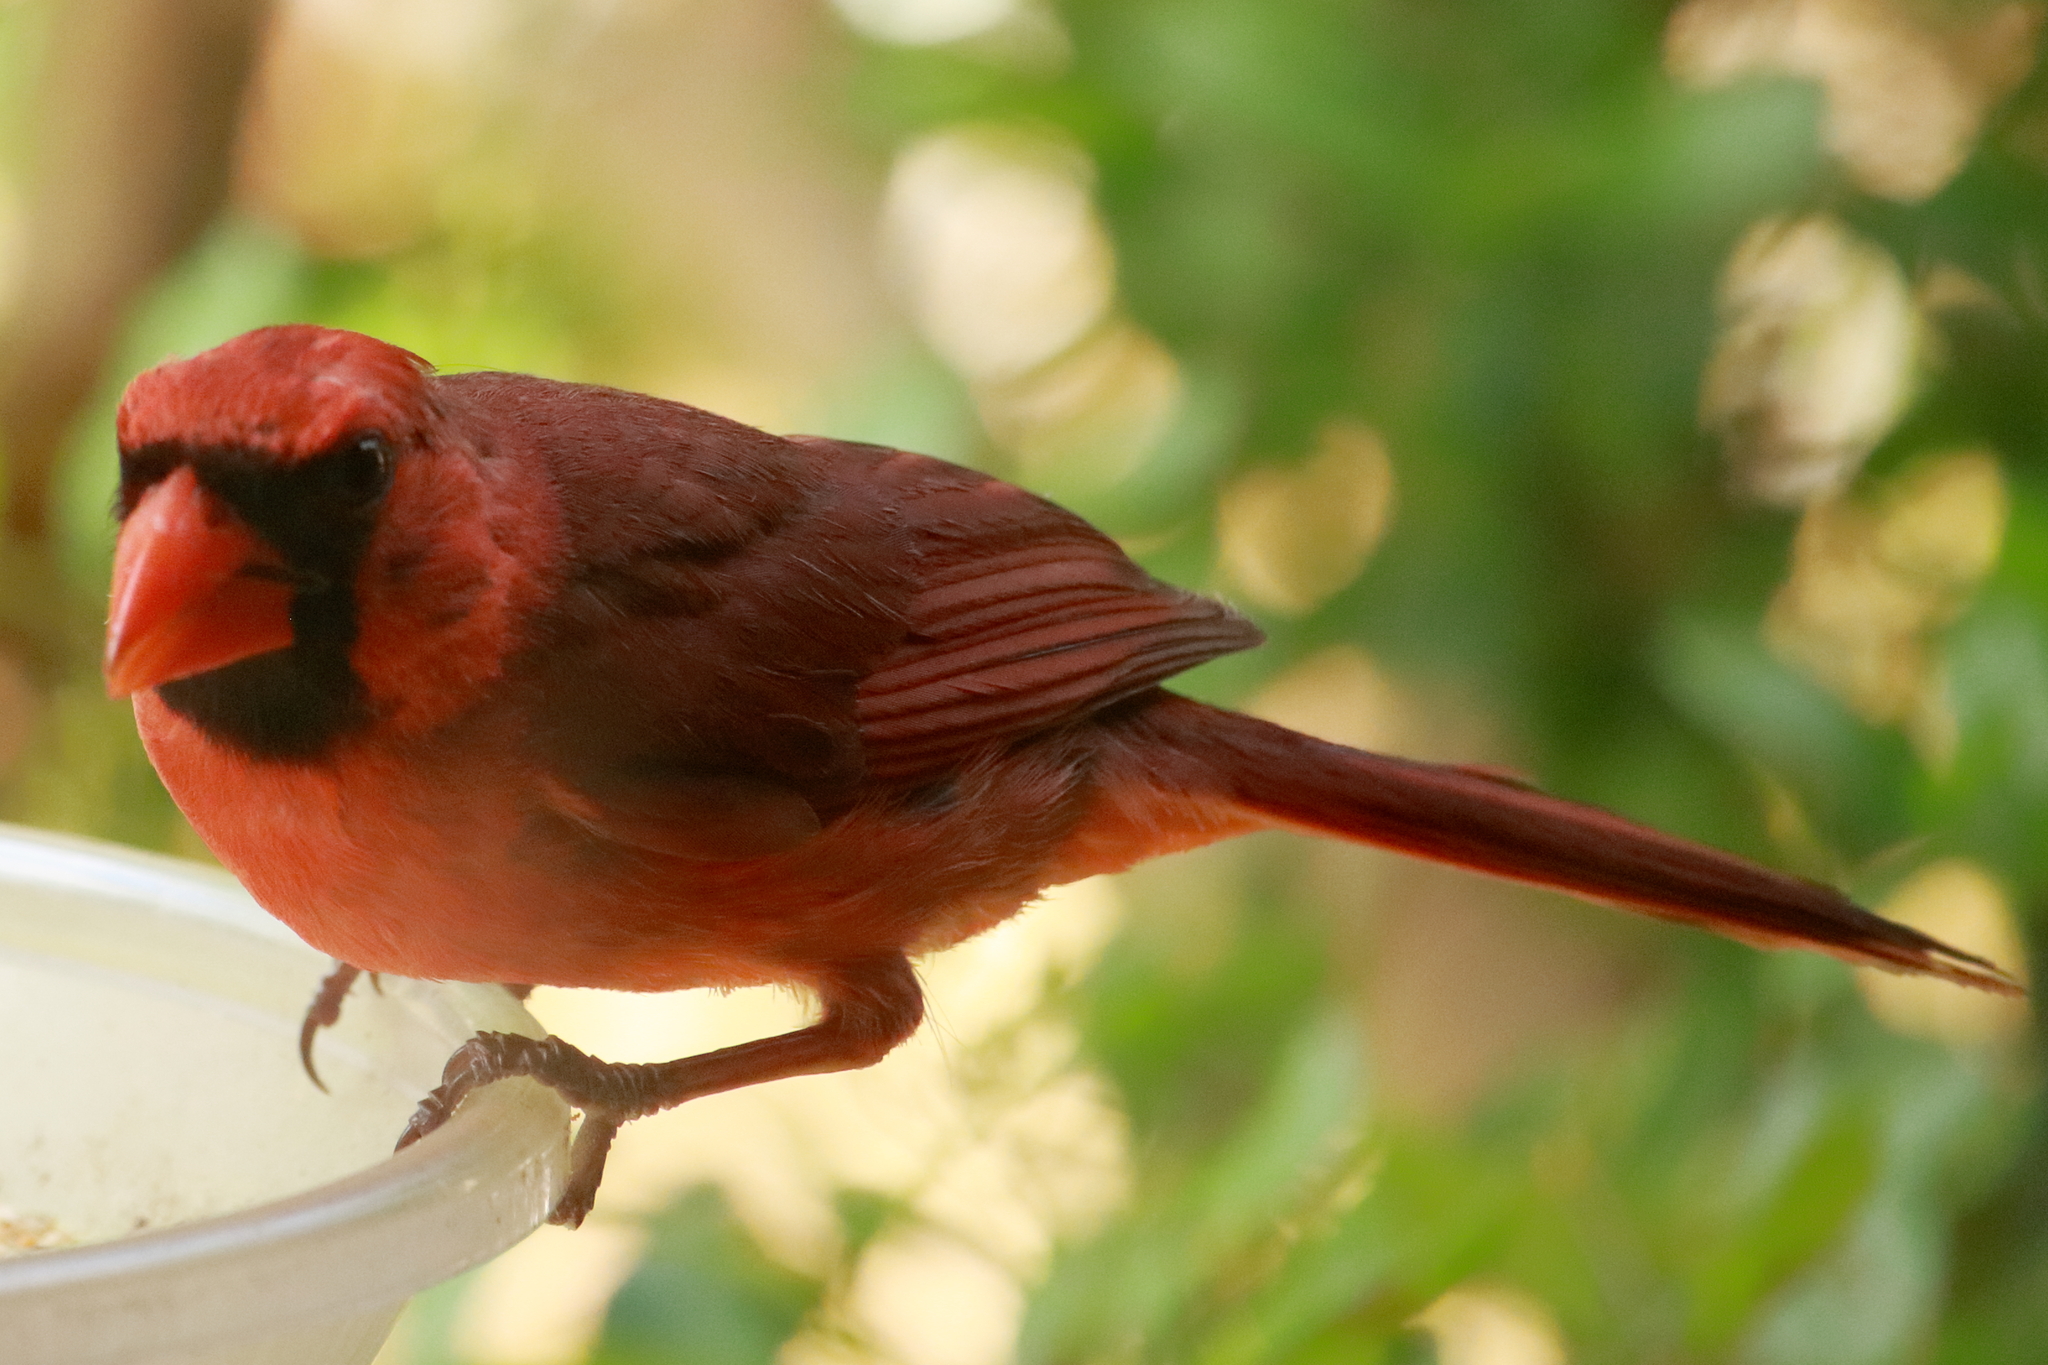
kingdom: Animalia
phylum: Chordata
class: Aves
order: Passeriformes
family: Cardinalidae
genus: Cardinalis
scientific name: Cardinalis cardinalis
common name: Northern cardinal
